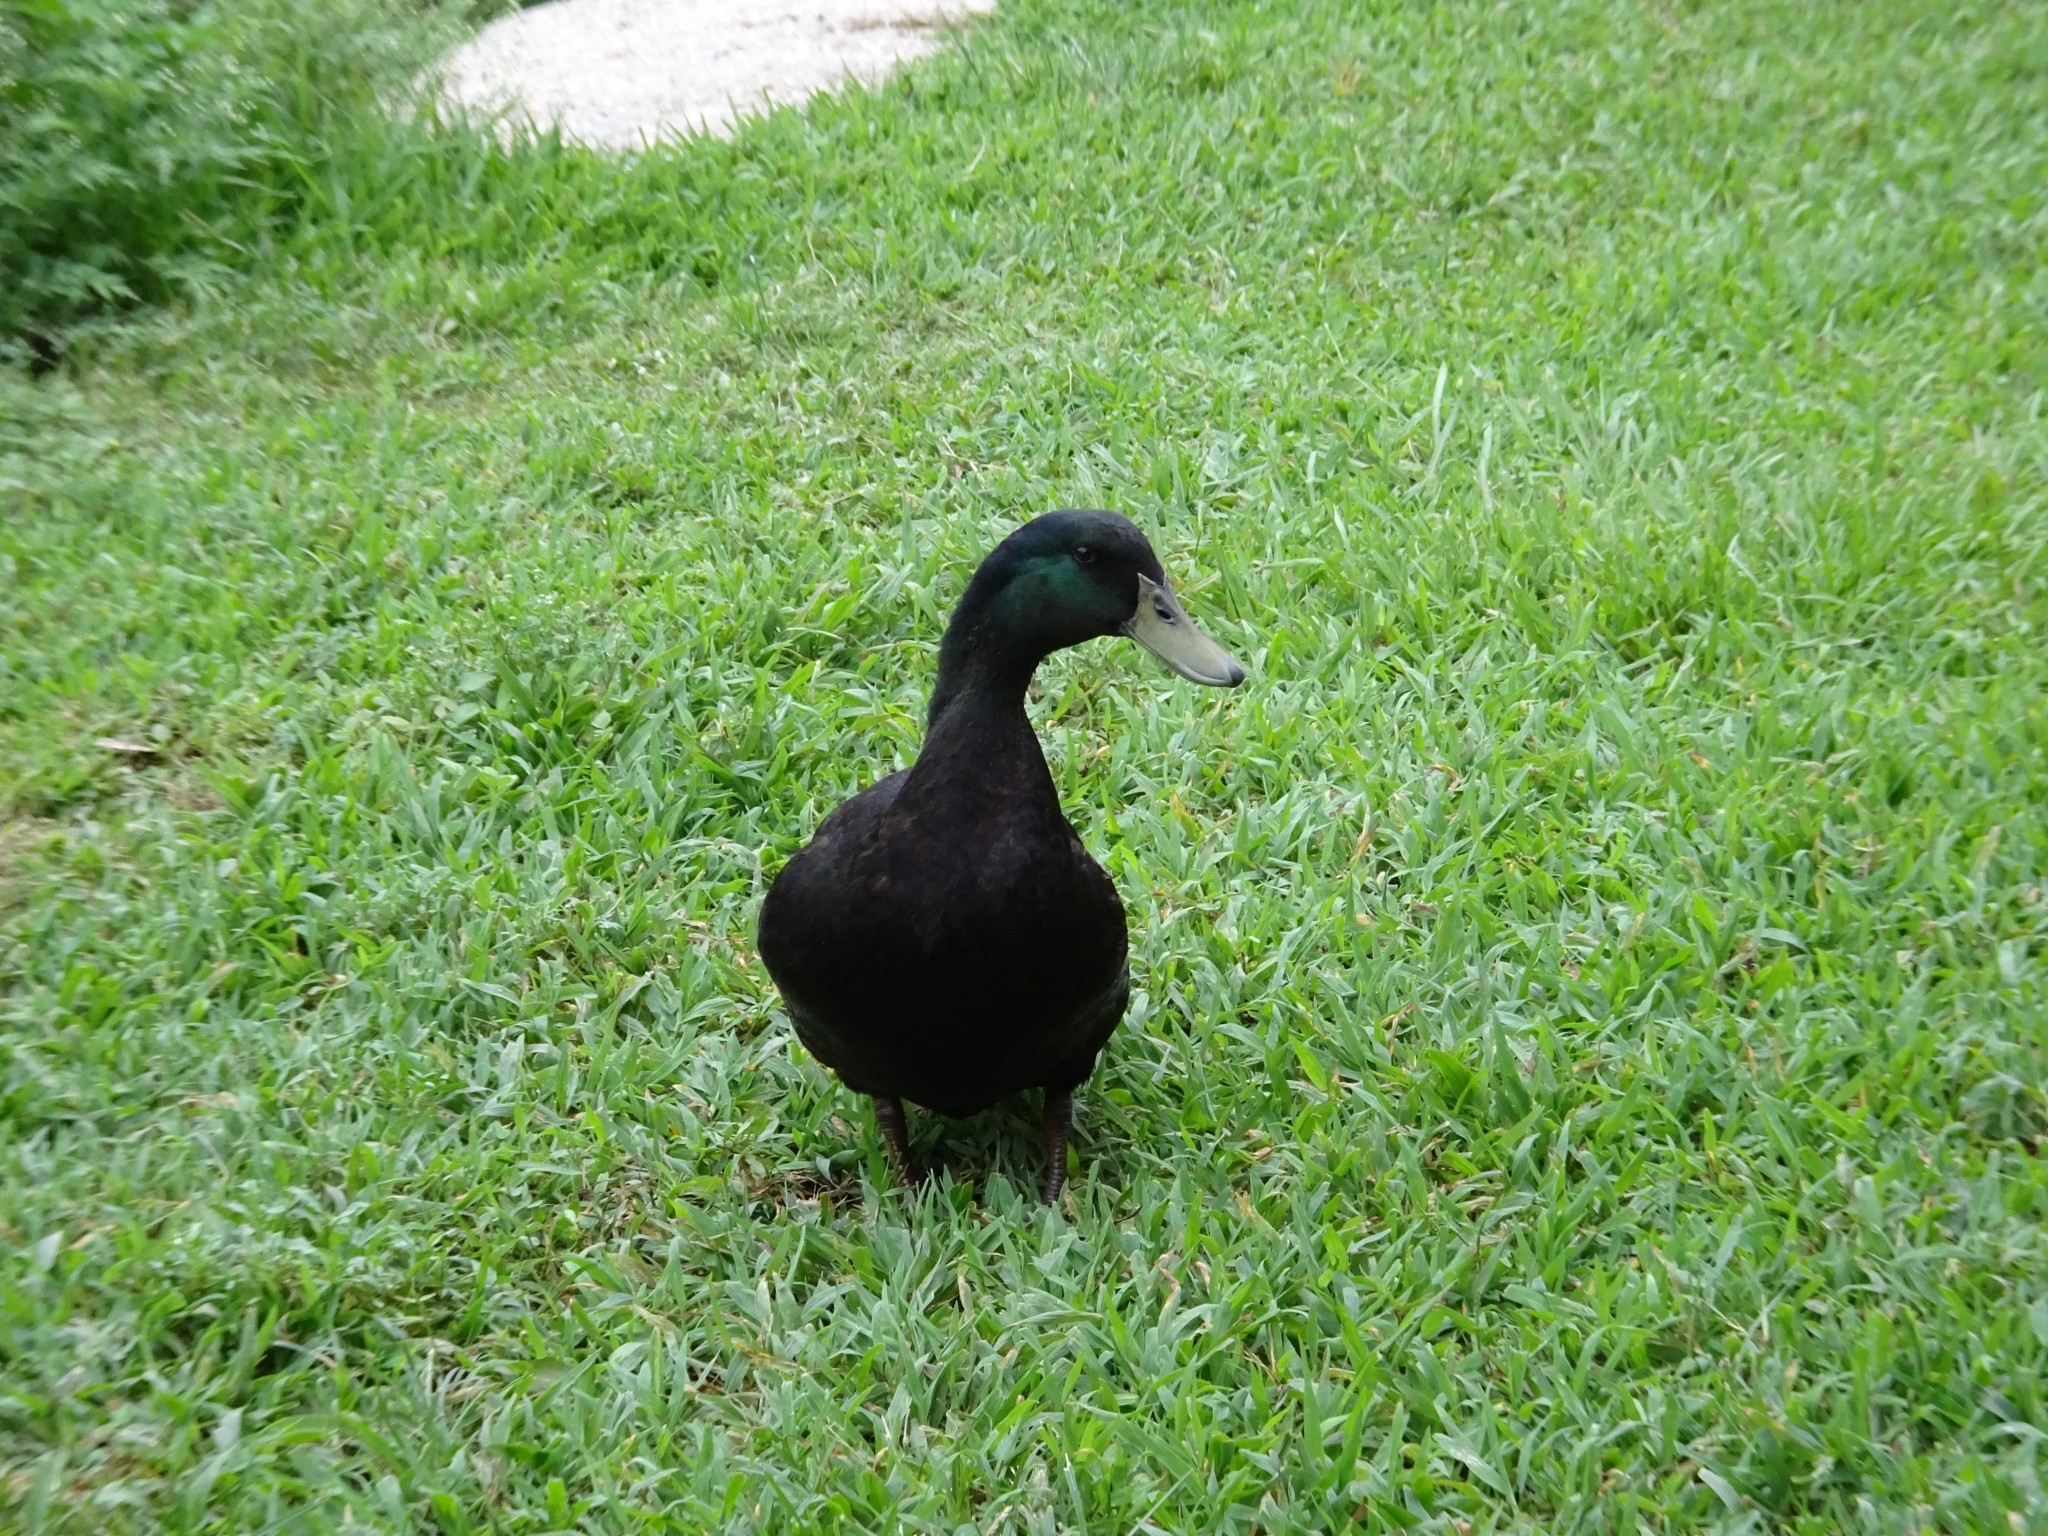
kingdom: Animalia
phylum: Chordata
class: Aves
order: Anseriformes
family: Anatidae
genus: Anas
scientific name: Anas platyrhynchos
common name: Mallard
